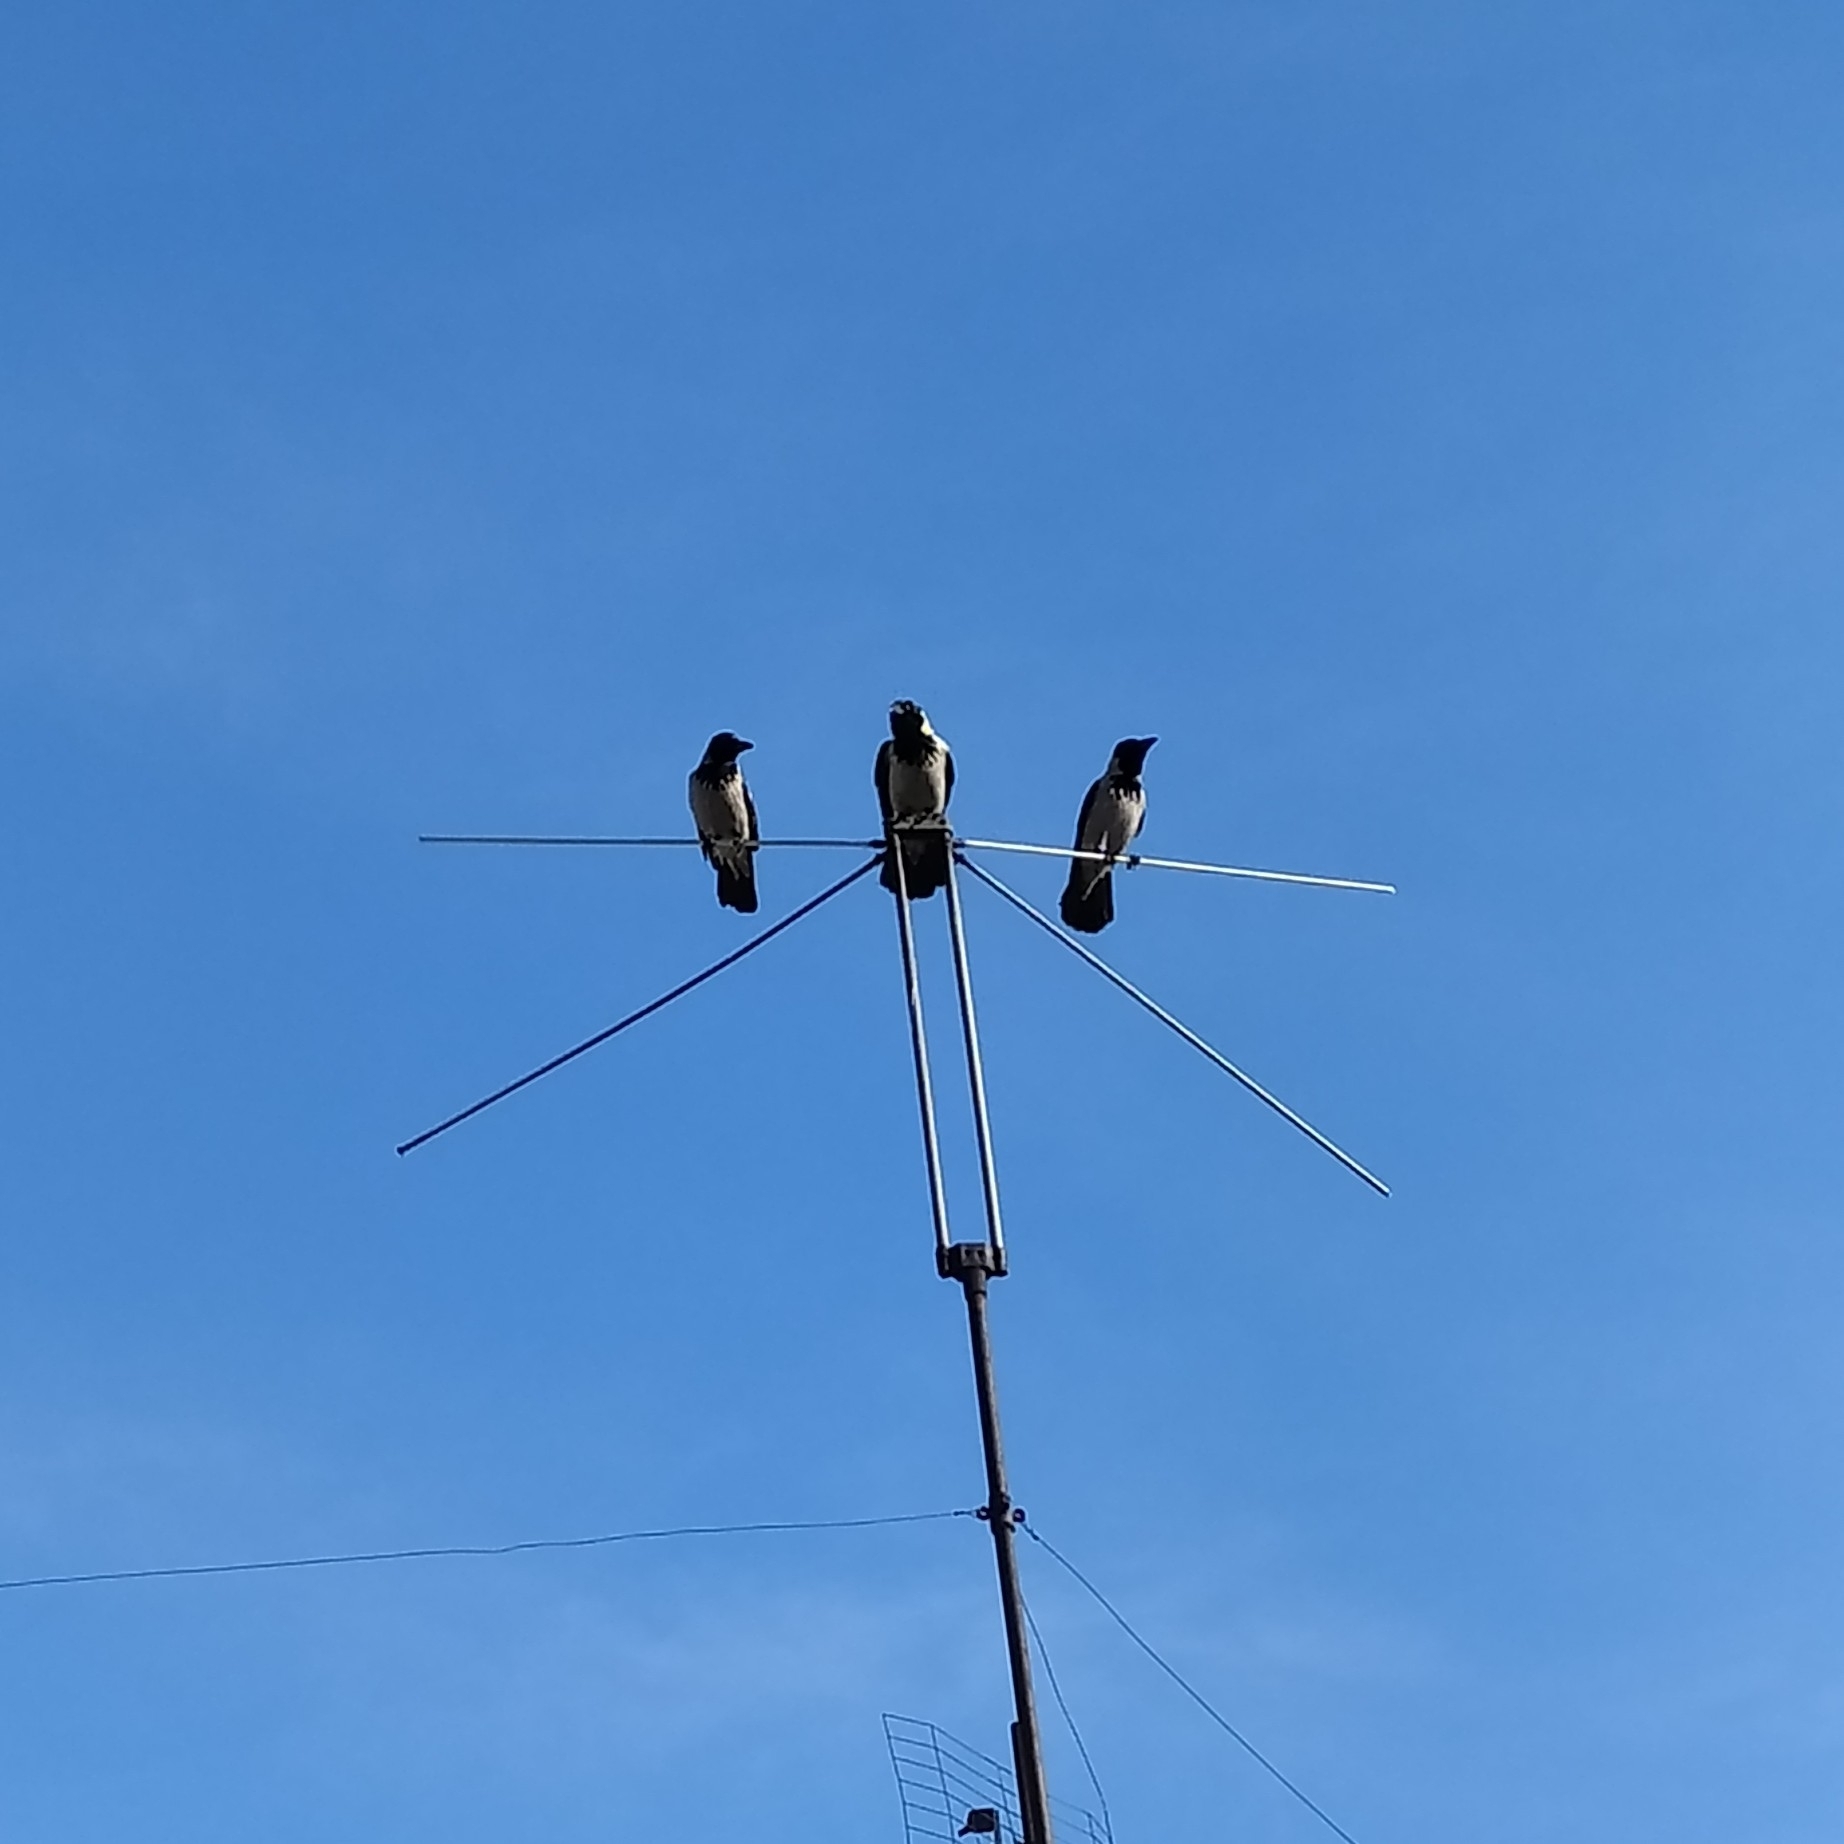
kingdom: Animalia
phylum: Chordata
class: Aves
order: Passeriformes
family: Corvidae
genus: Corvus
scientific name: Corvus cornix
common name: Hooded crow
